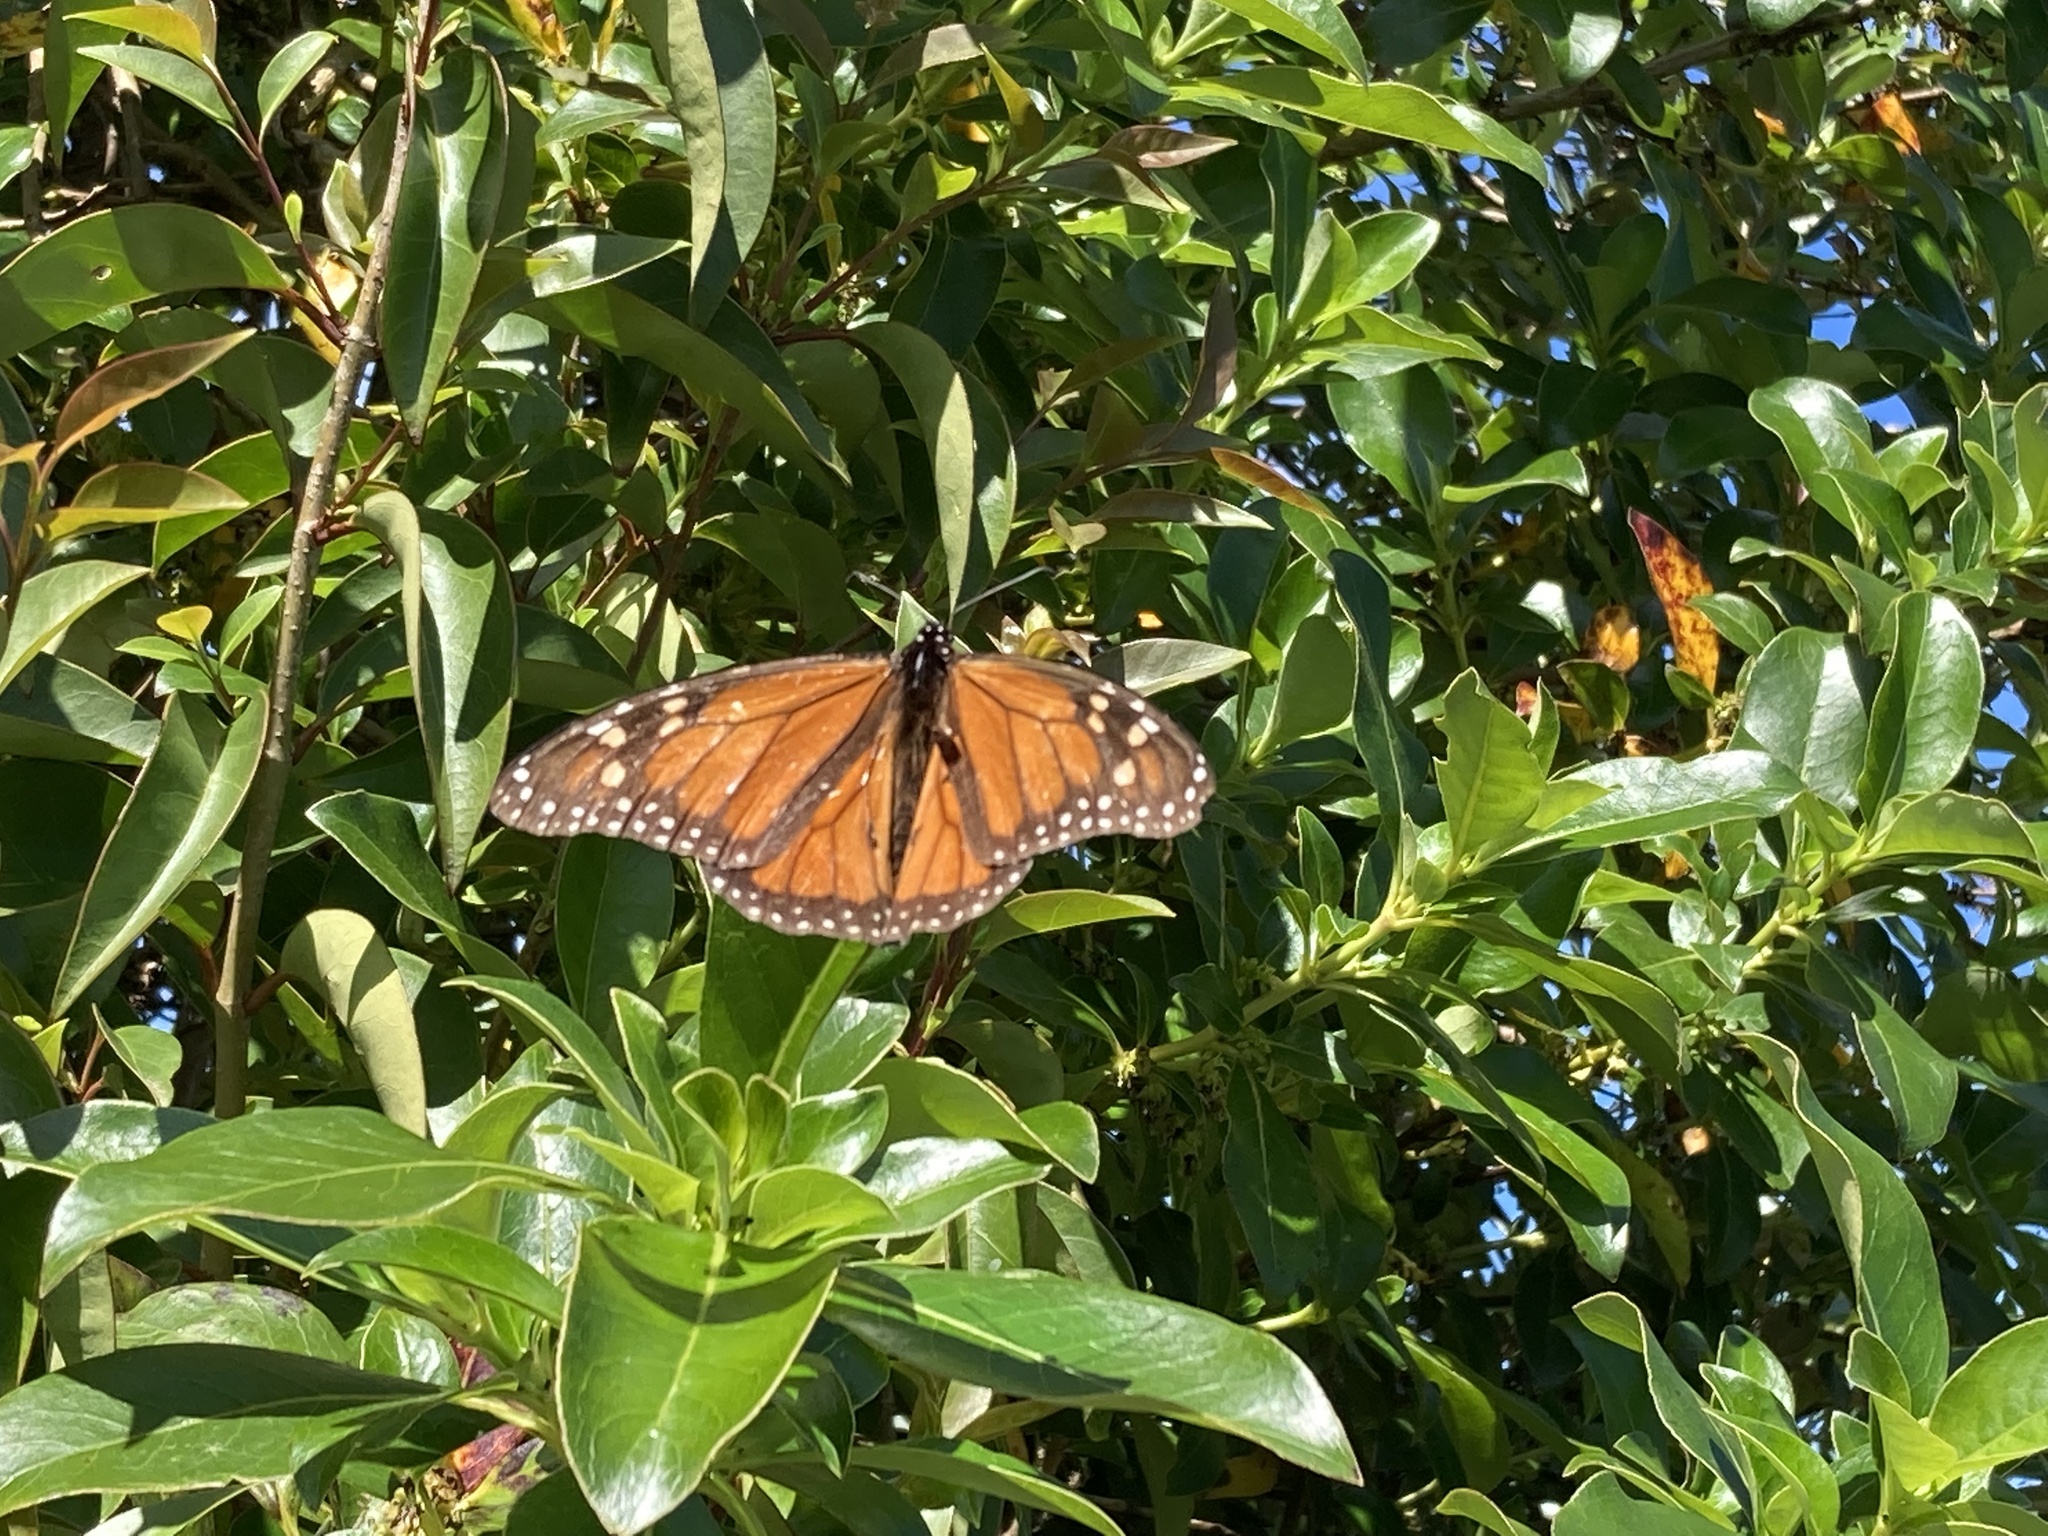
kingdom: Animalia
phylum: Arthropoda
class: Insecta
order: Lepidoptera
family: Nymphalidae
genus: Danaus
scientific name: Danaus plexippus
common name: Monarch
